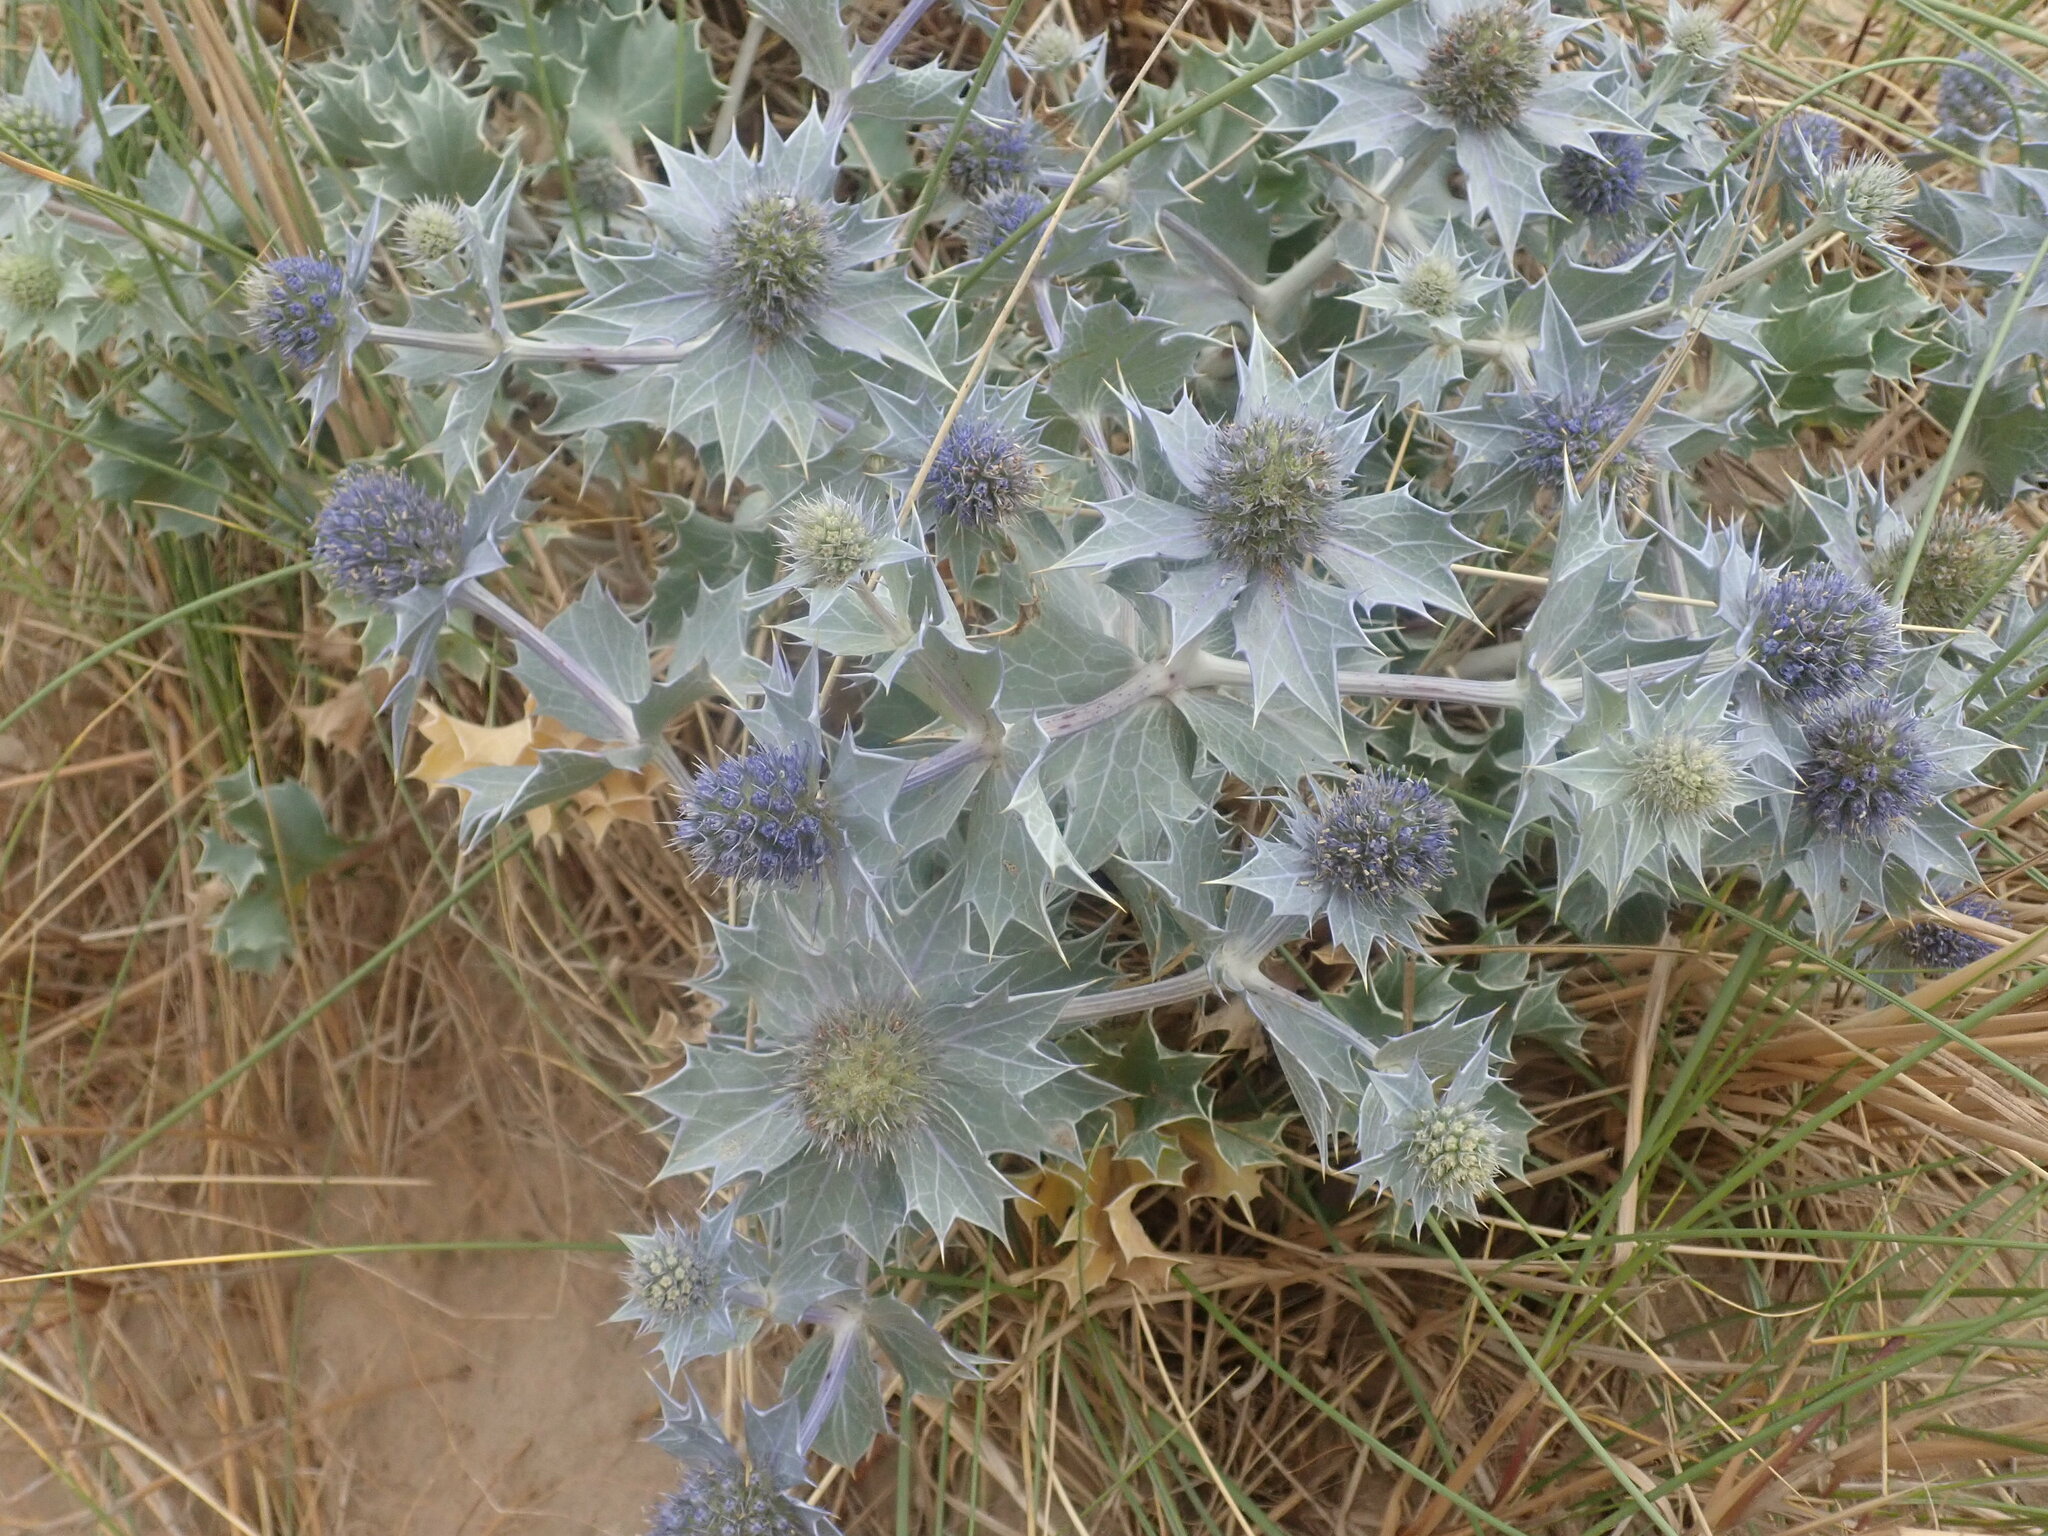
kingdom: Plantae
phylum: Tracheophyta
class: Magnoliopsida
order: Apiales
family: Apiaceae
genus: Eryngium
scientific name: Eryngium maritimum
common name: Sea-holly
